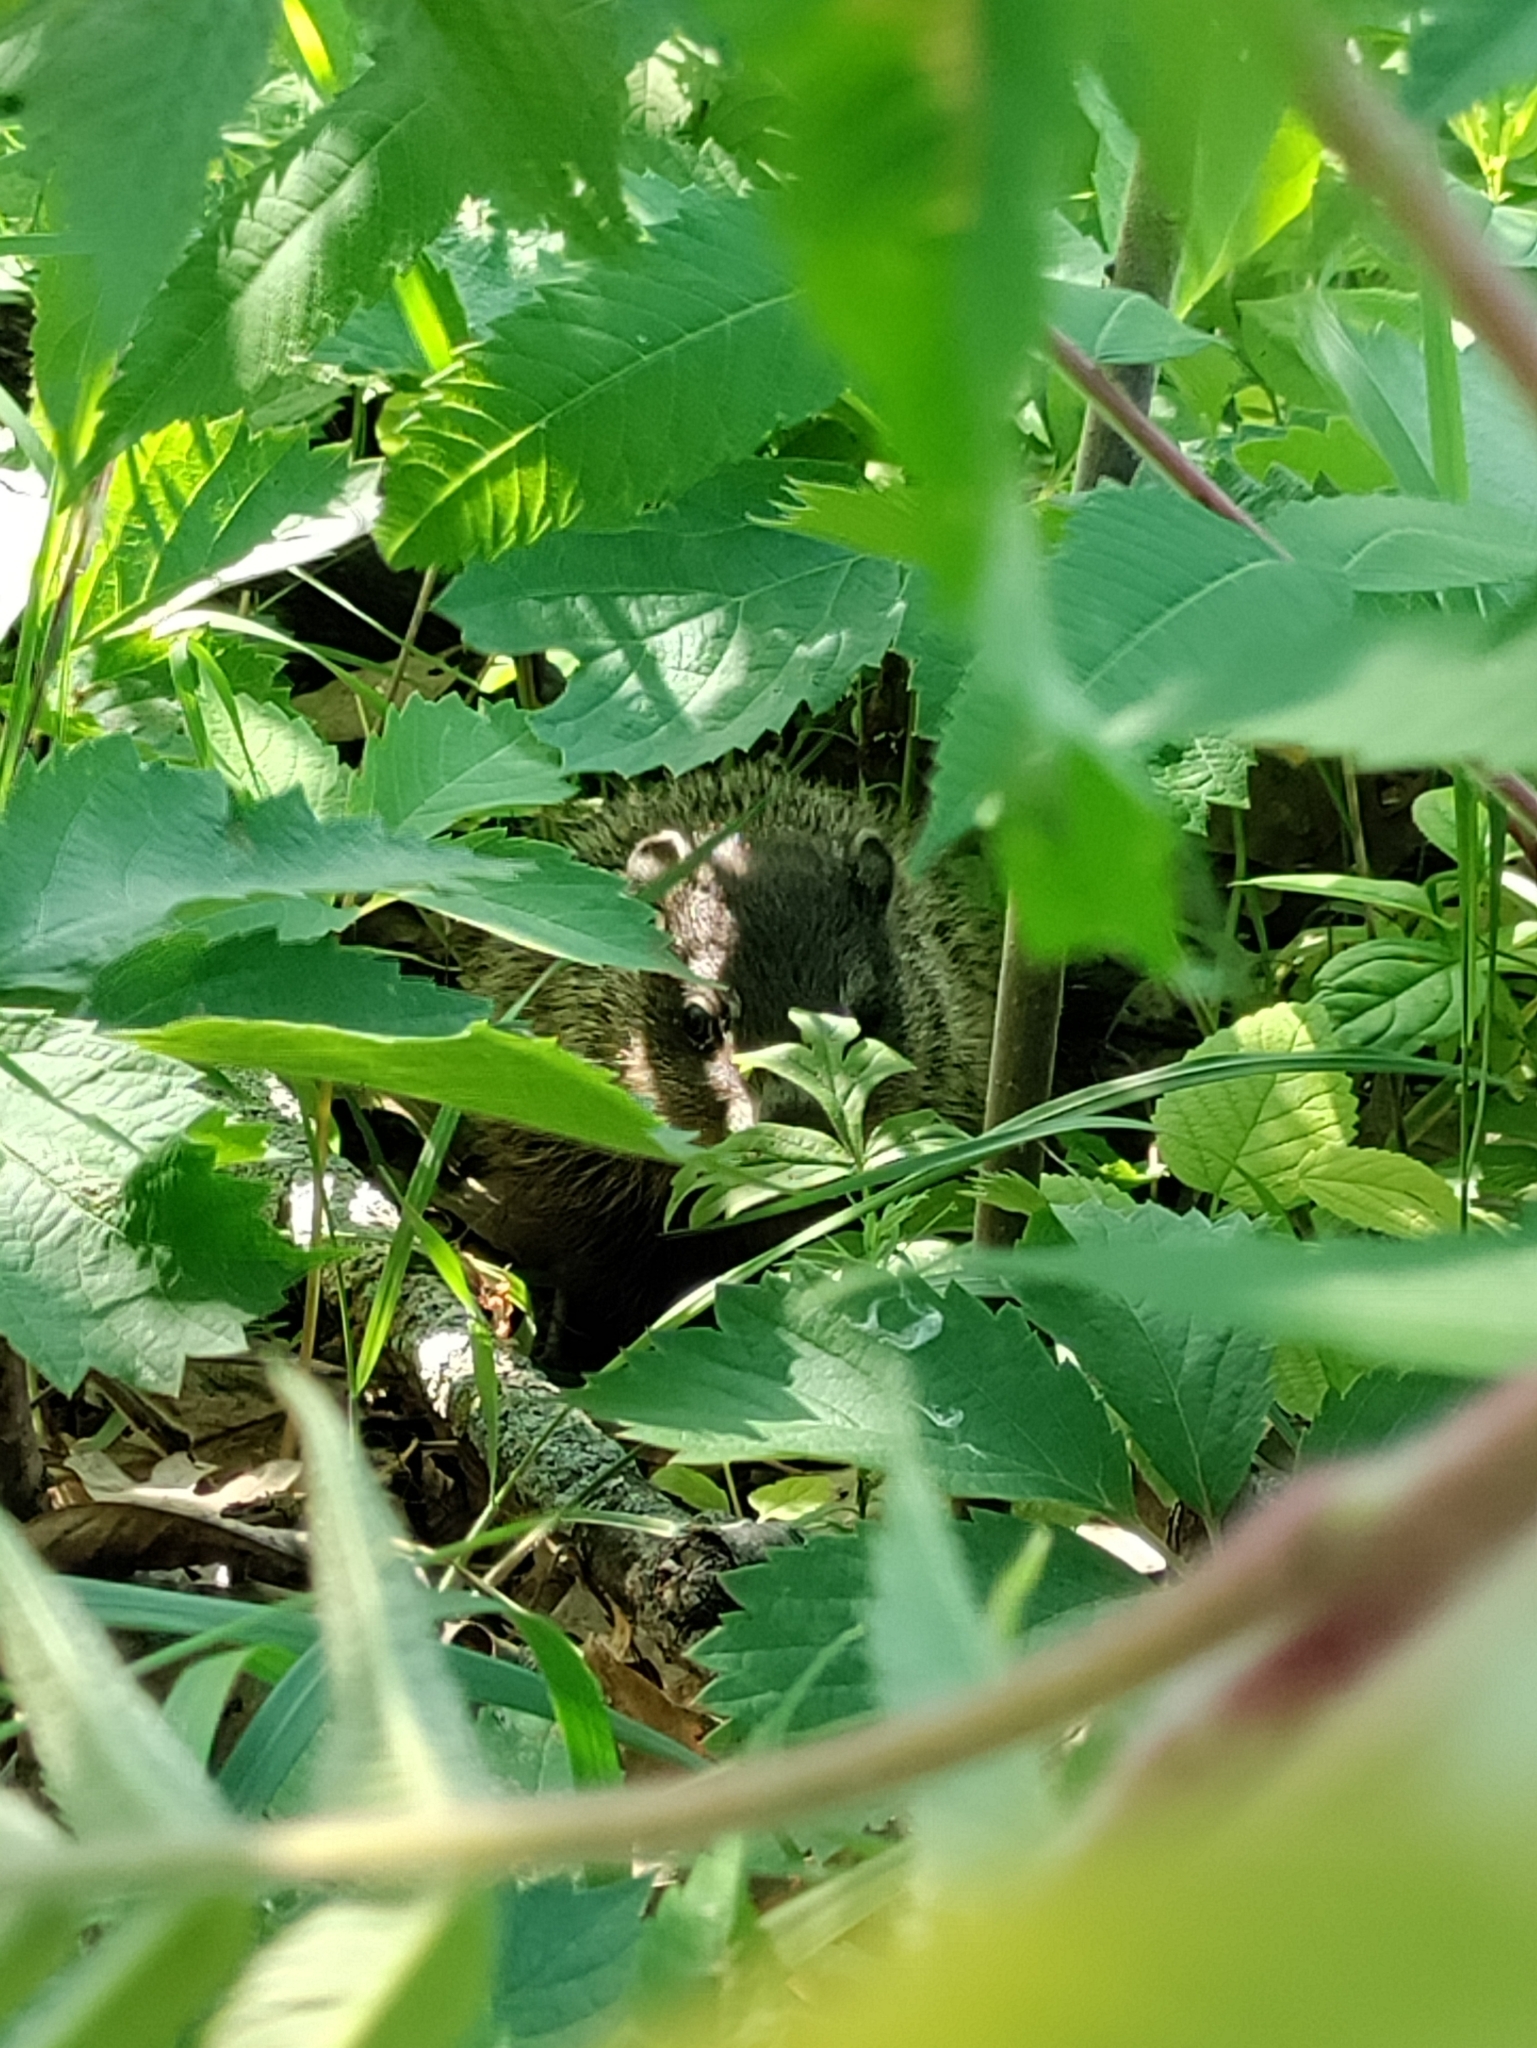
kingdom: Animalia
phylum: Chordata
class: Mammalia
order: Rodentia
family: Sciuridae
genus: Marmota
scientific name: Marmota monax
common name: Groundhog
